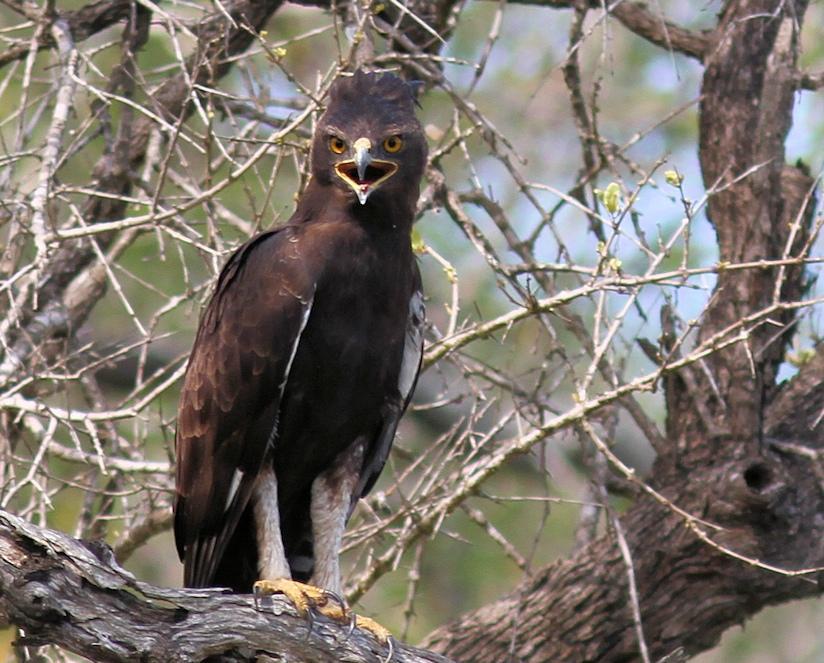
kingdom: Animalia
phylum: Chordata
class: Aves
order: Accipitriformes
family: Accipitridae
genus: Lophaetus
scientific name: Lophaetus occipitalis
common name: Long-crested eagle
